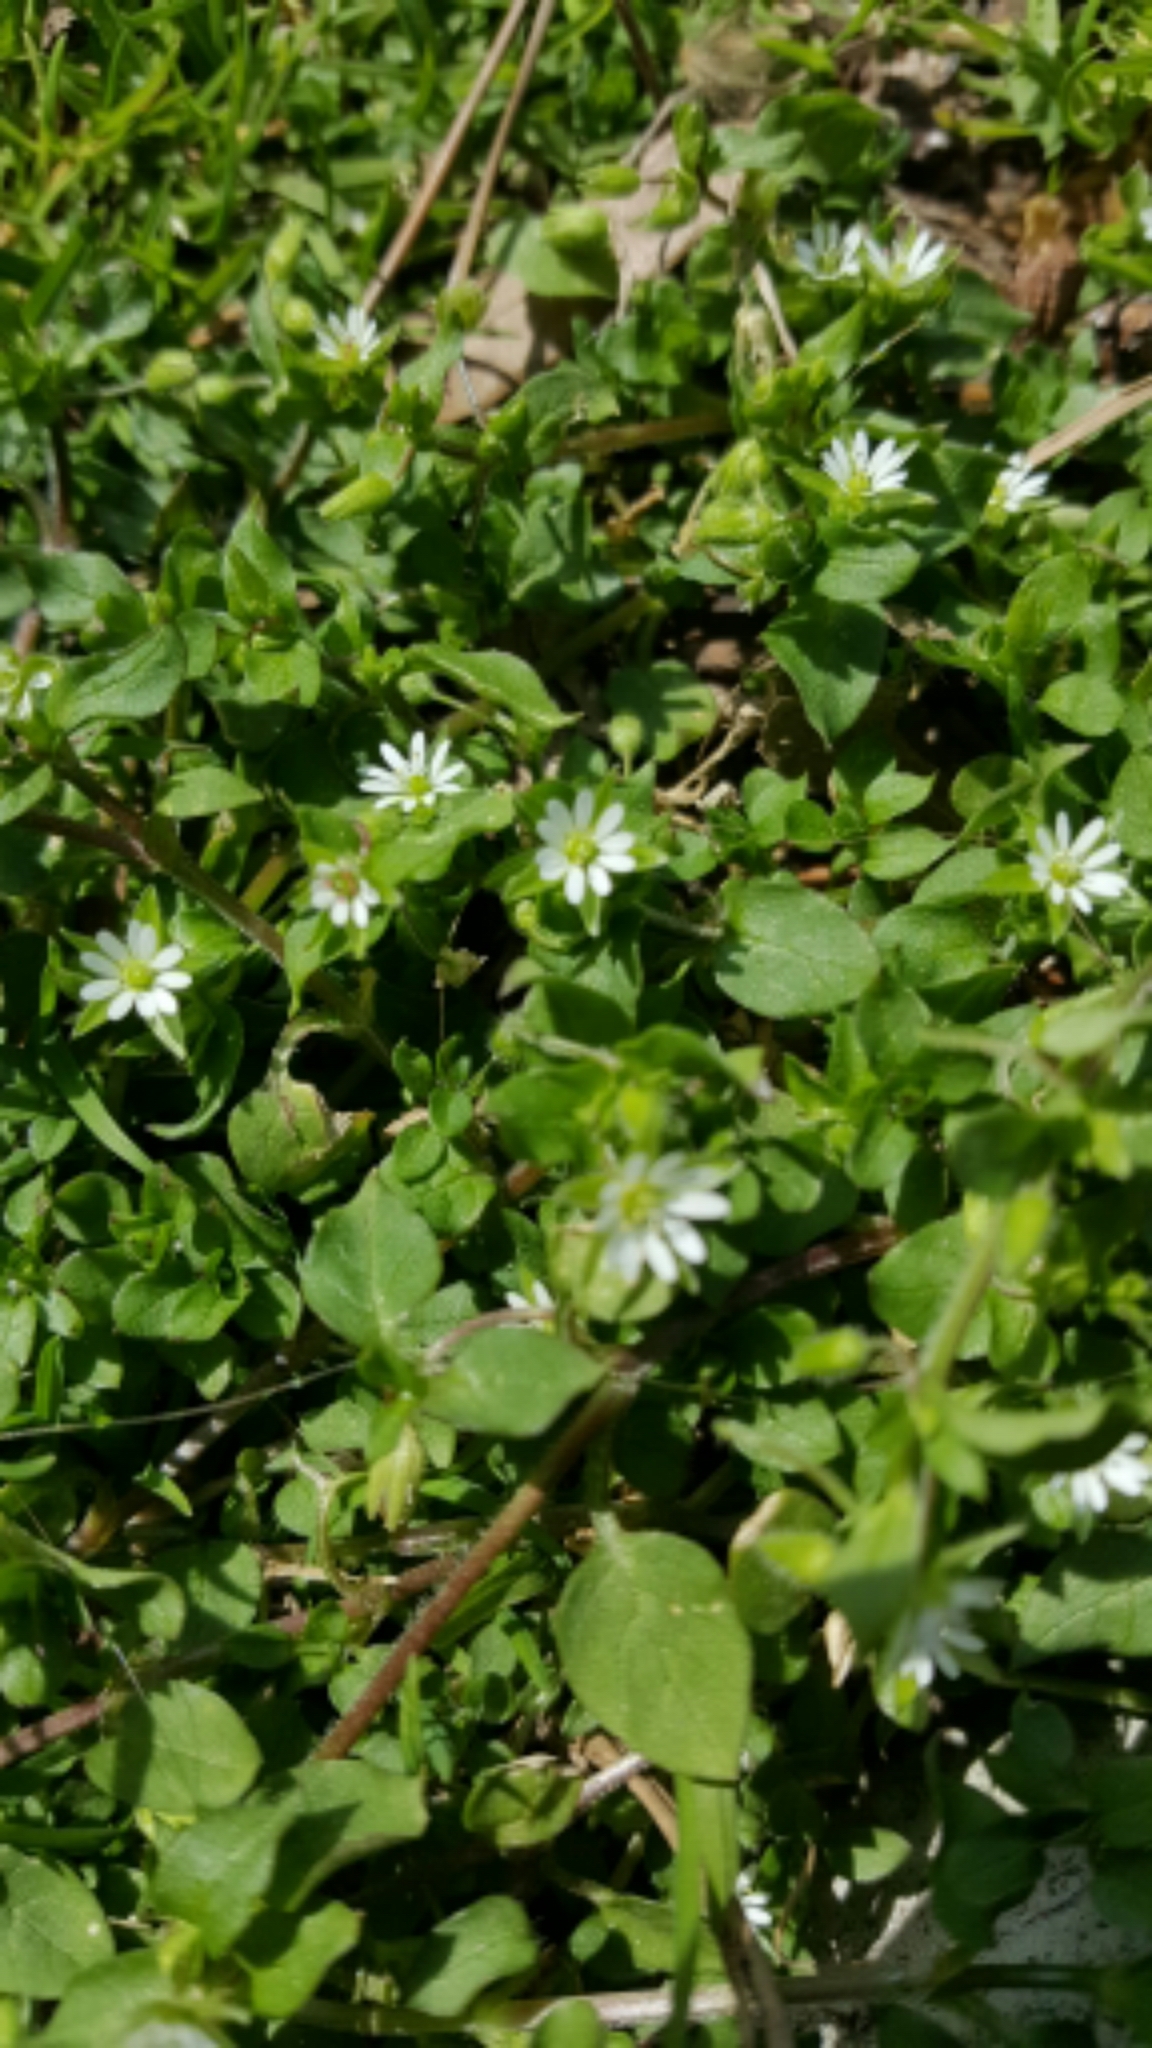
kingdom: Plantae
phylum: Tracheophyta
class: Magnoliopsida
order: Caryophyllales
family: Caryophyllaceae
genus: Stellaria
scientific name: Stellaria media
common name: Common chickweed
